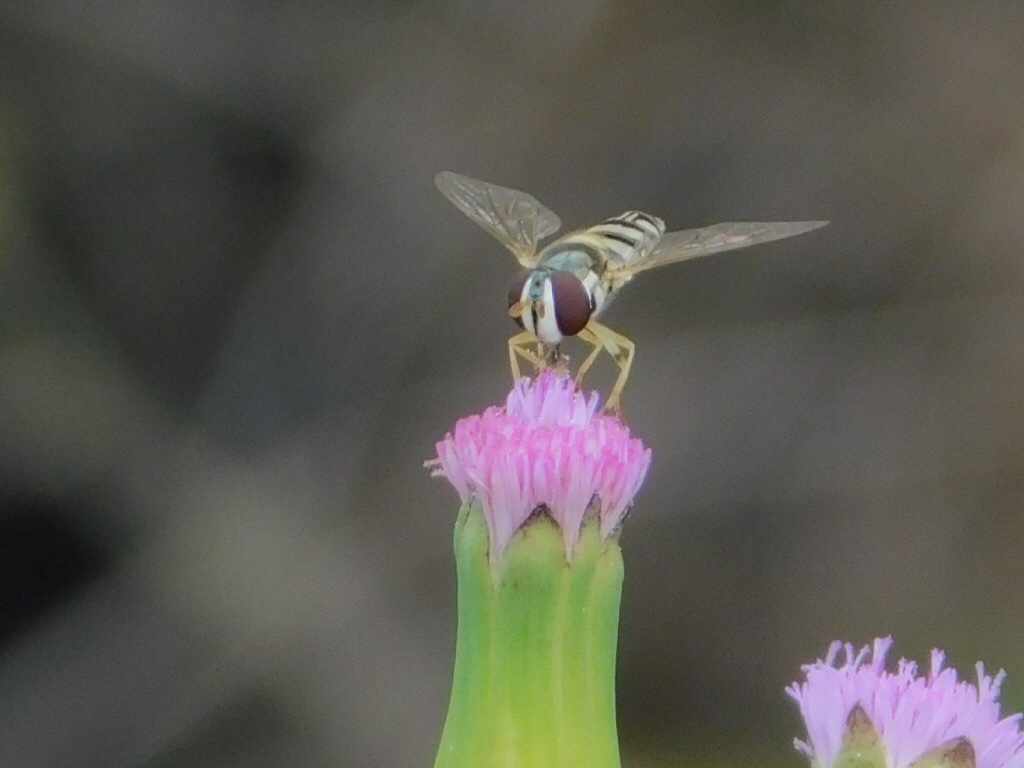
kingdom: Animalia
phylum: Arthropoda
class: Insecta
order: Diptera
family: Syrphidae
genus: Allograpta
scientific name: Allograpta exotica
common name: Syrphid fly
